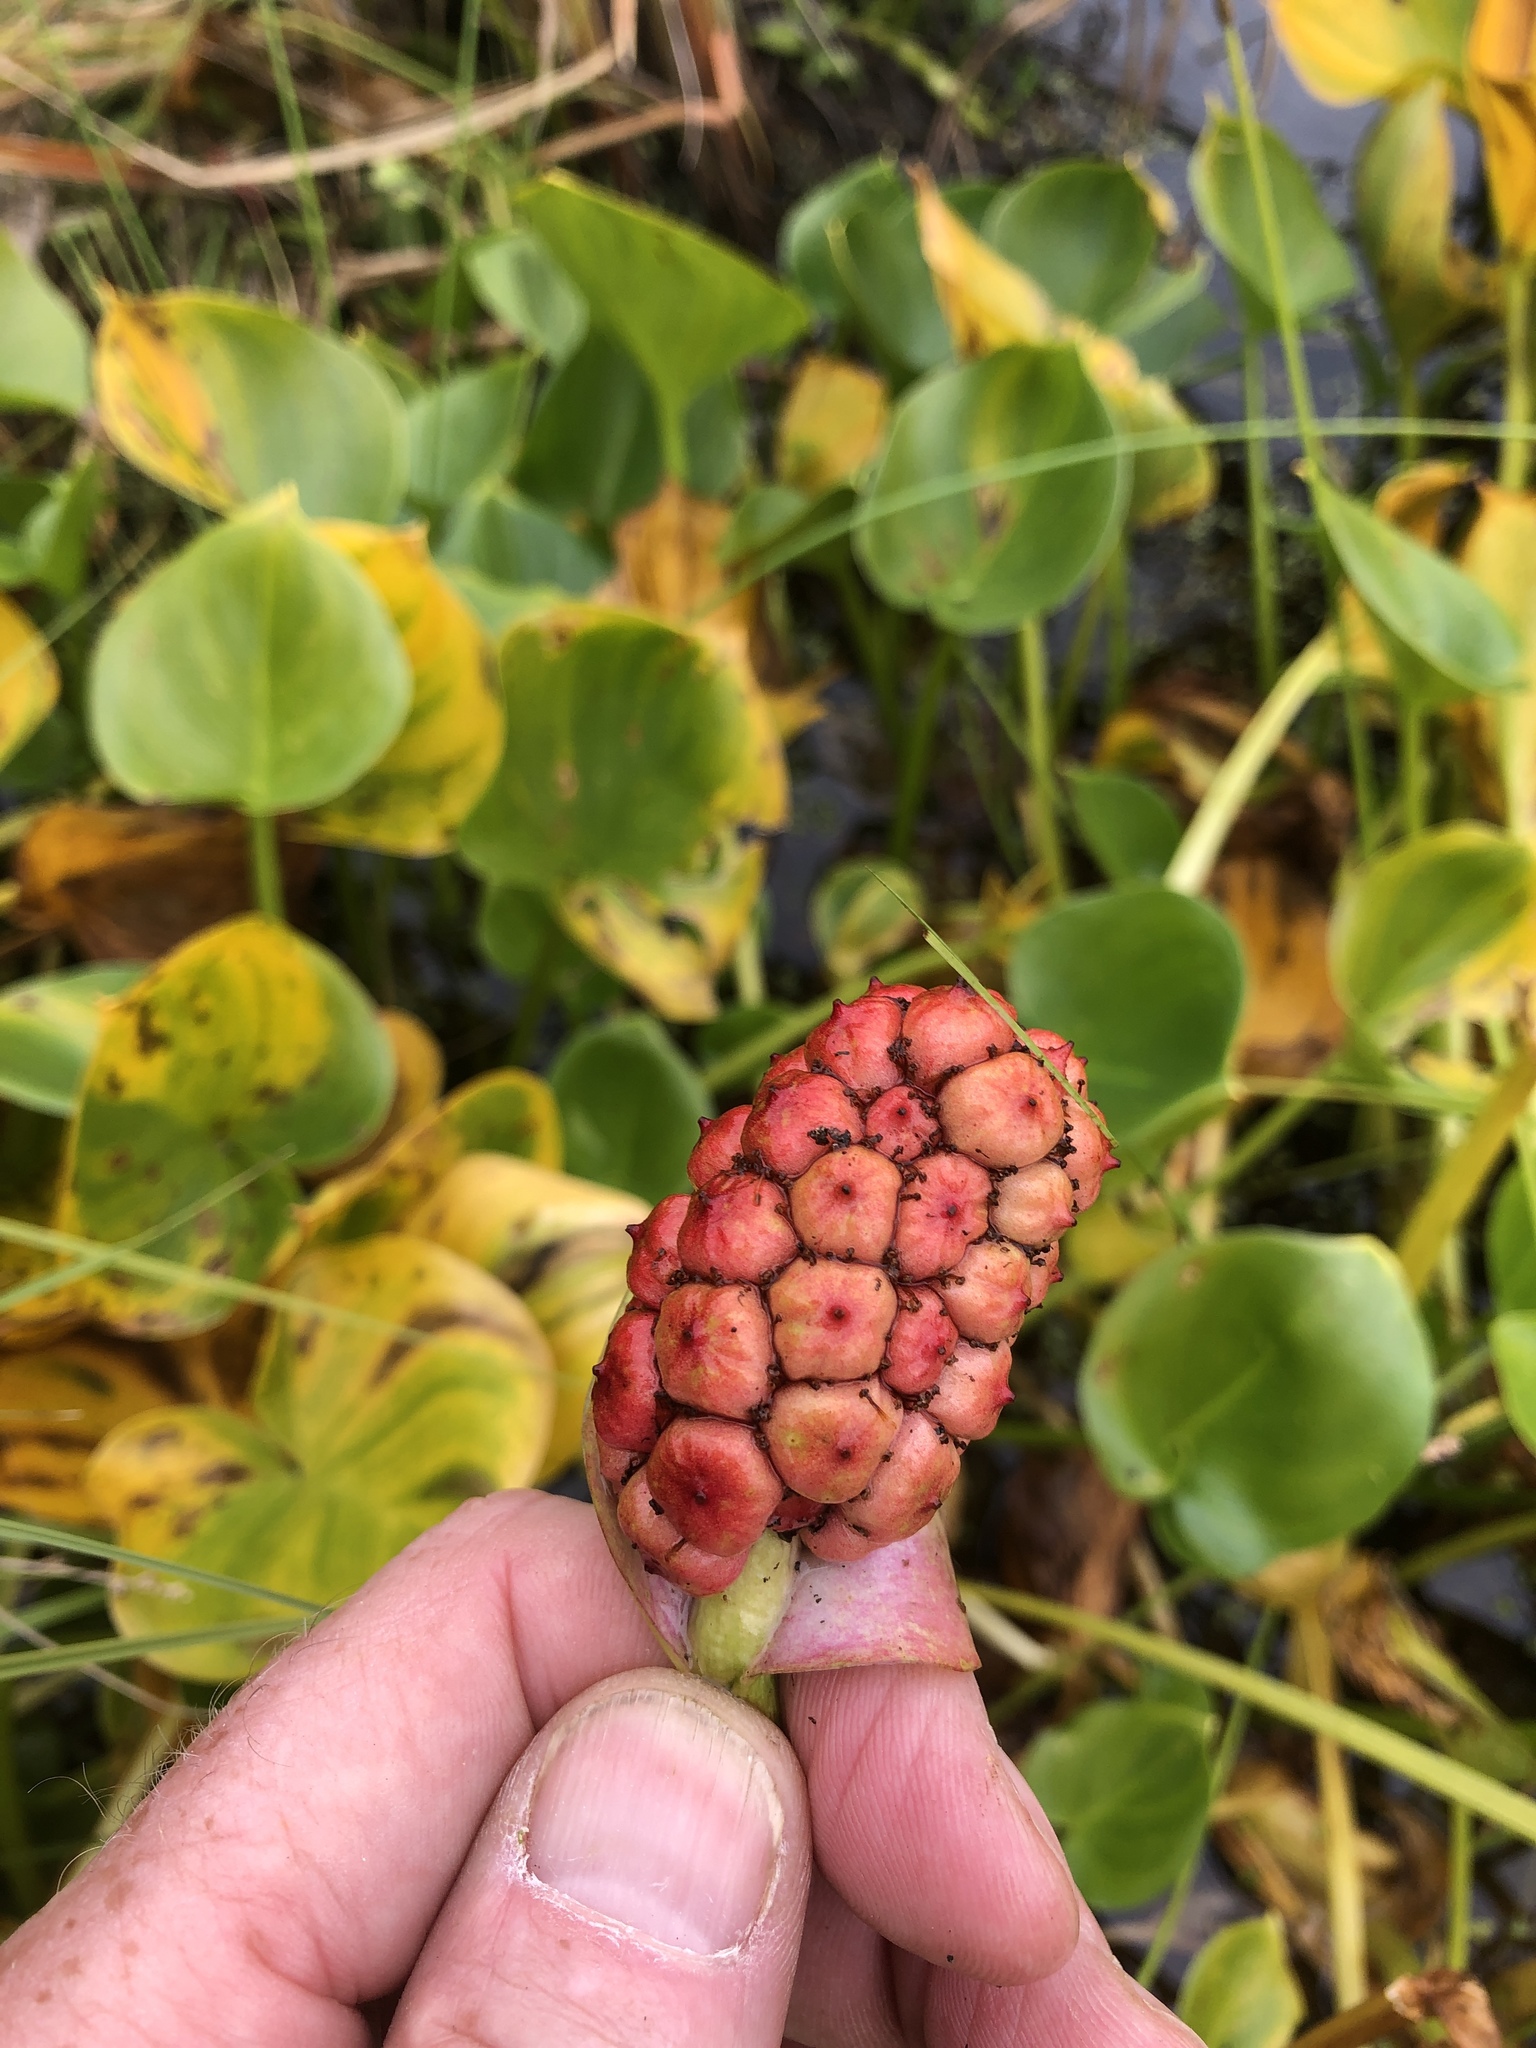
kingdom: Plantae
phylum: Tracheophyta
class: Liliopsida
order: Alismatales
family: Araceae
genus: Calla
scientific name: Calla palustris
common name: Bog arum
